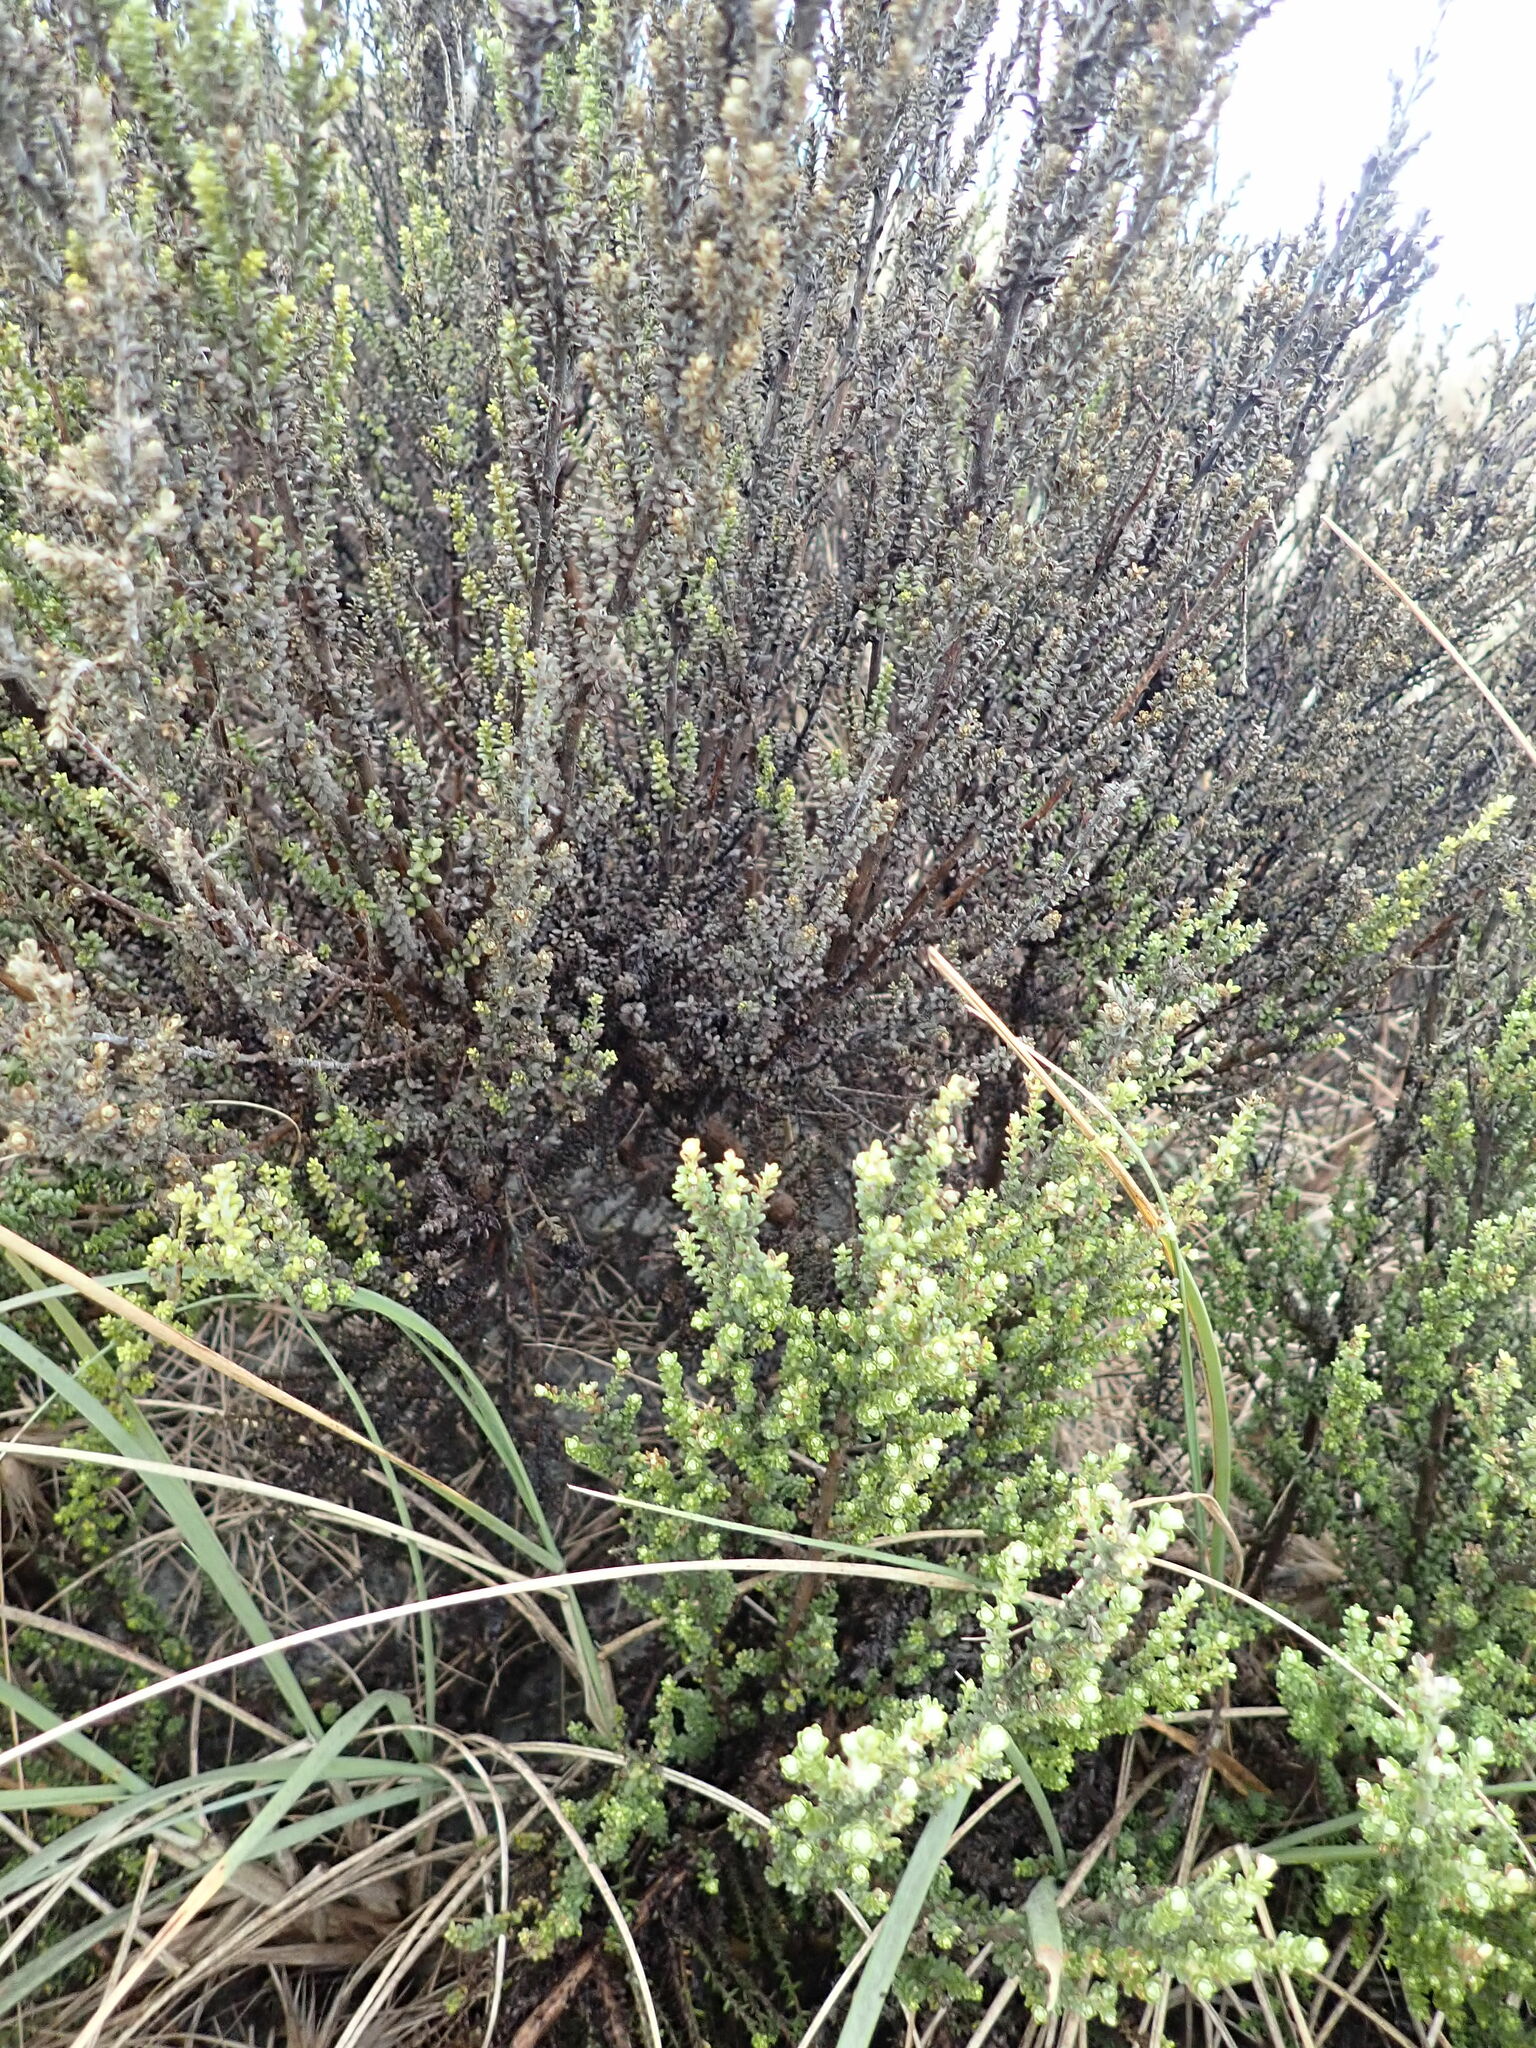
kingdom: Plantae
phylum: Tracheophyta
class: Magnoliopsida
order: Asterales
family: Asteraceae
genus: Ozothamnus
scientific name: Ozothamnus leptophyllus
